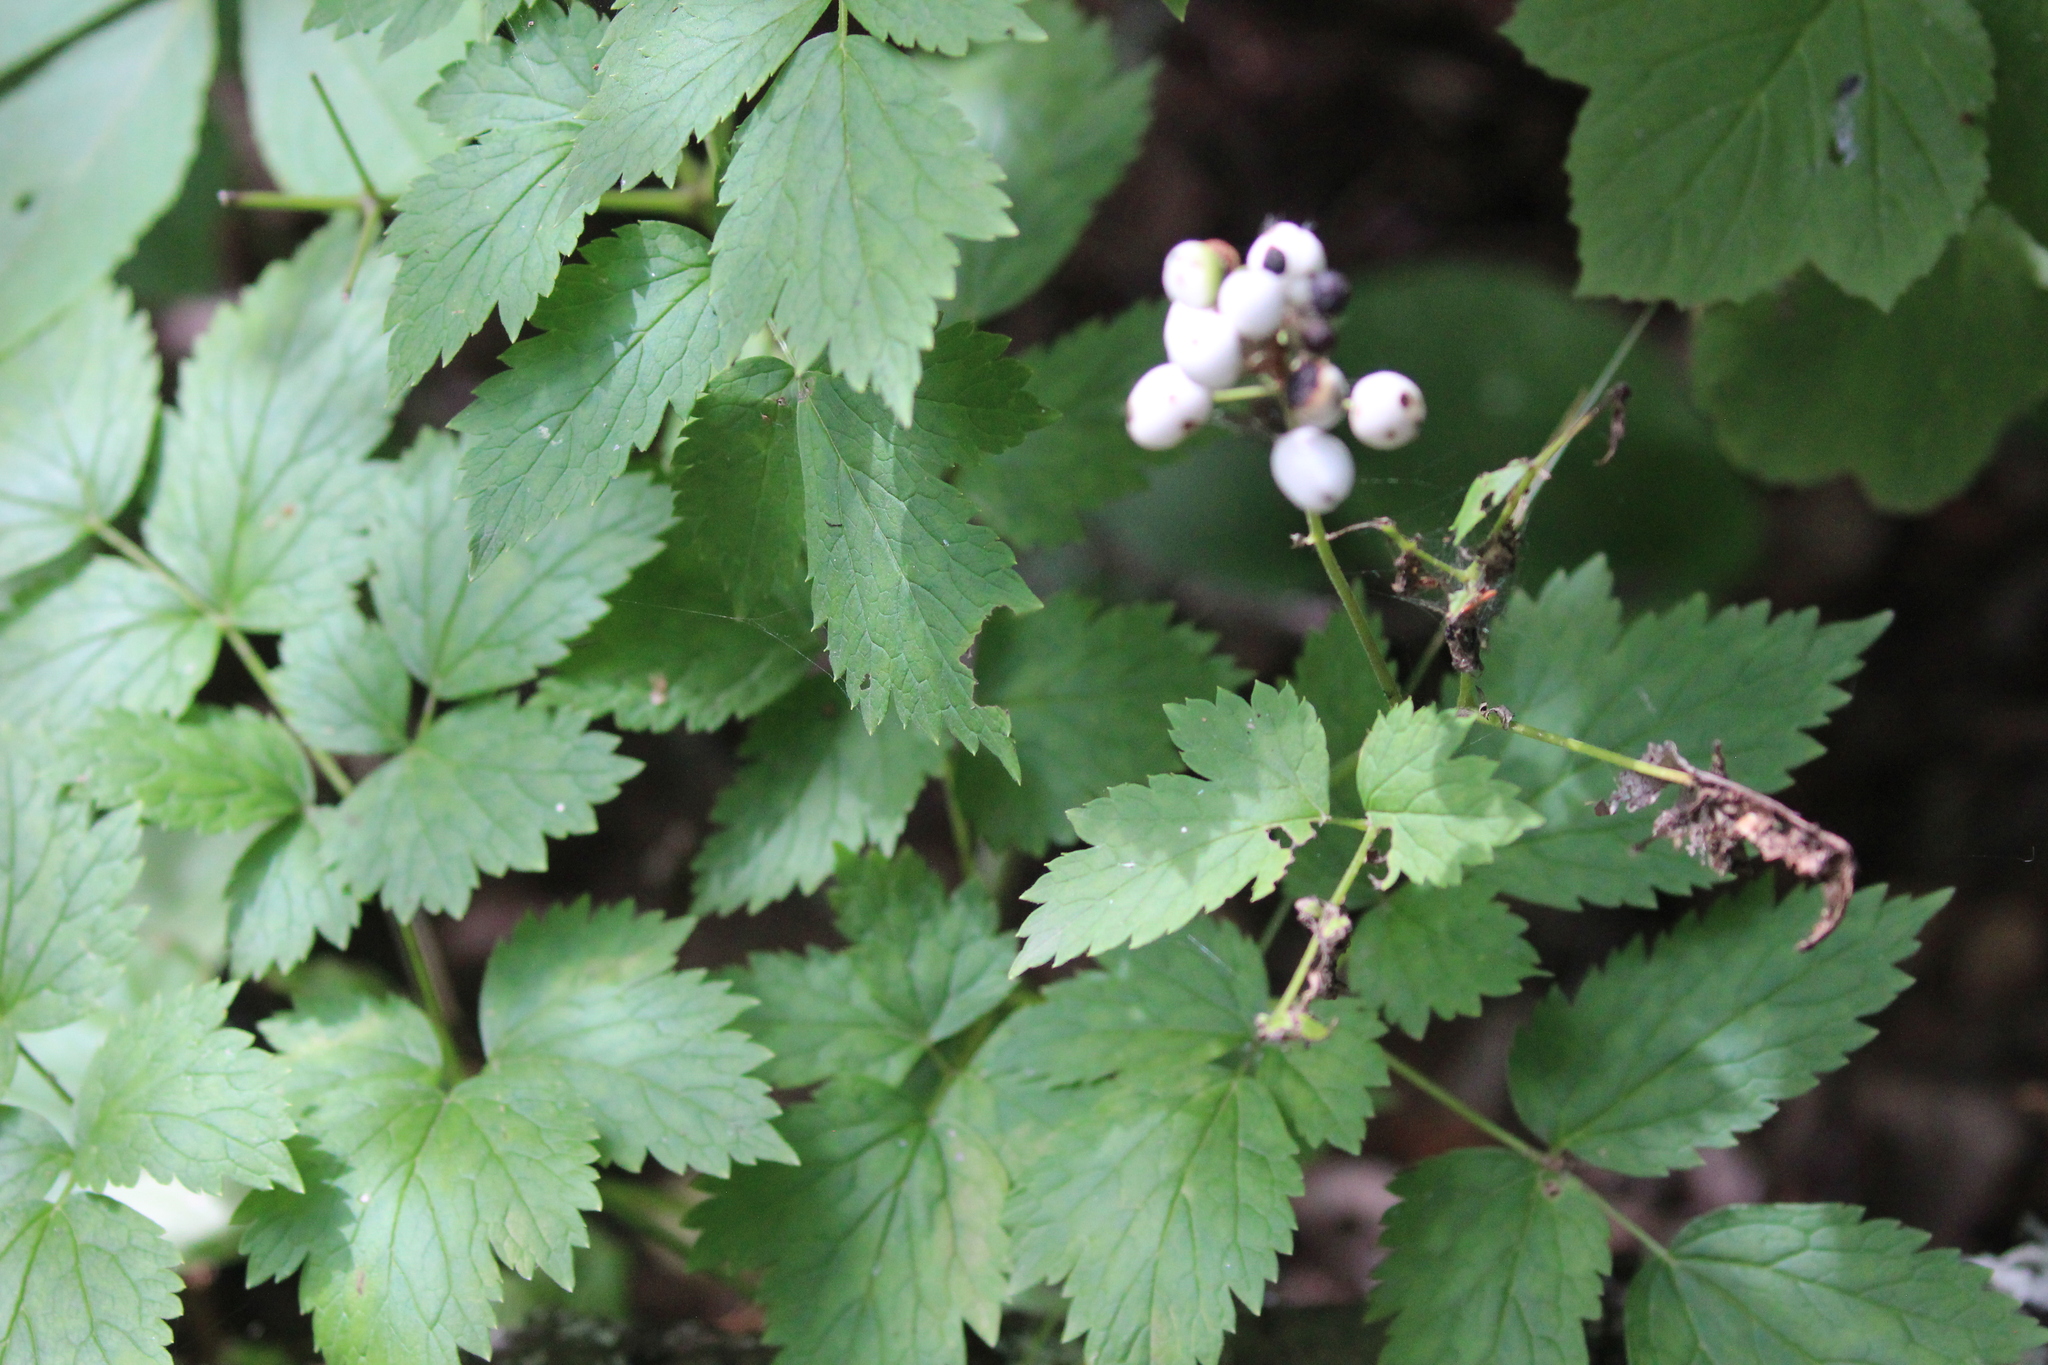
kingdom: Plantae
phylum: Tracheophyta
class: Magnoliopsida
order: Ranunculales
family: Ranunculaceae
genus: Actaea
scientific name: Actaea rubra
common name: Red baneberry
